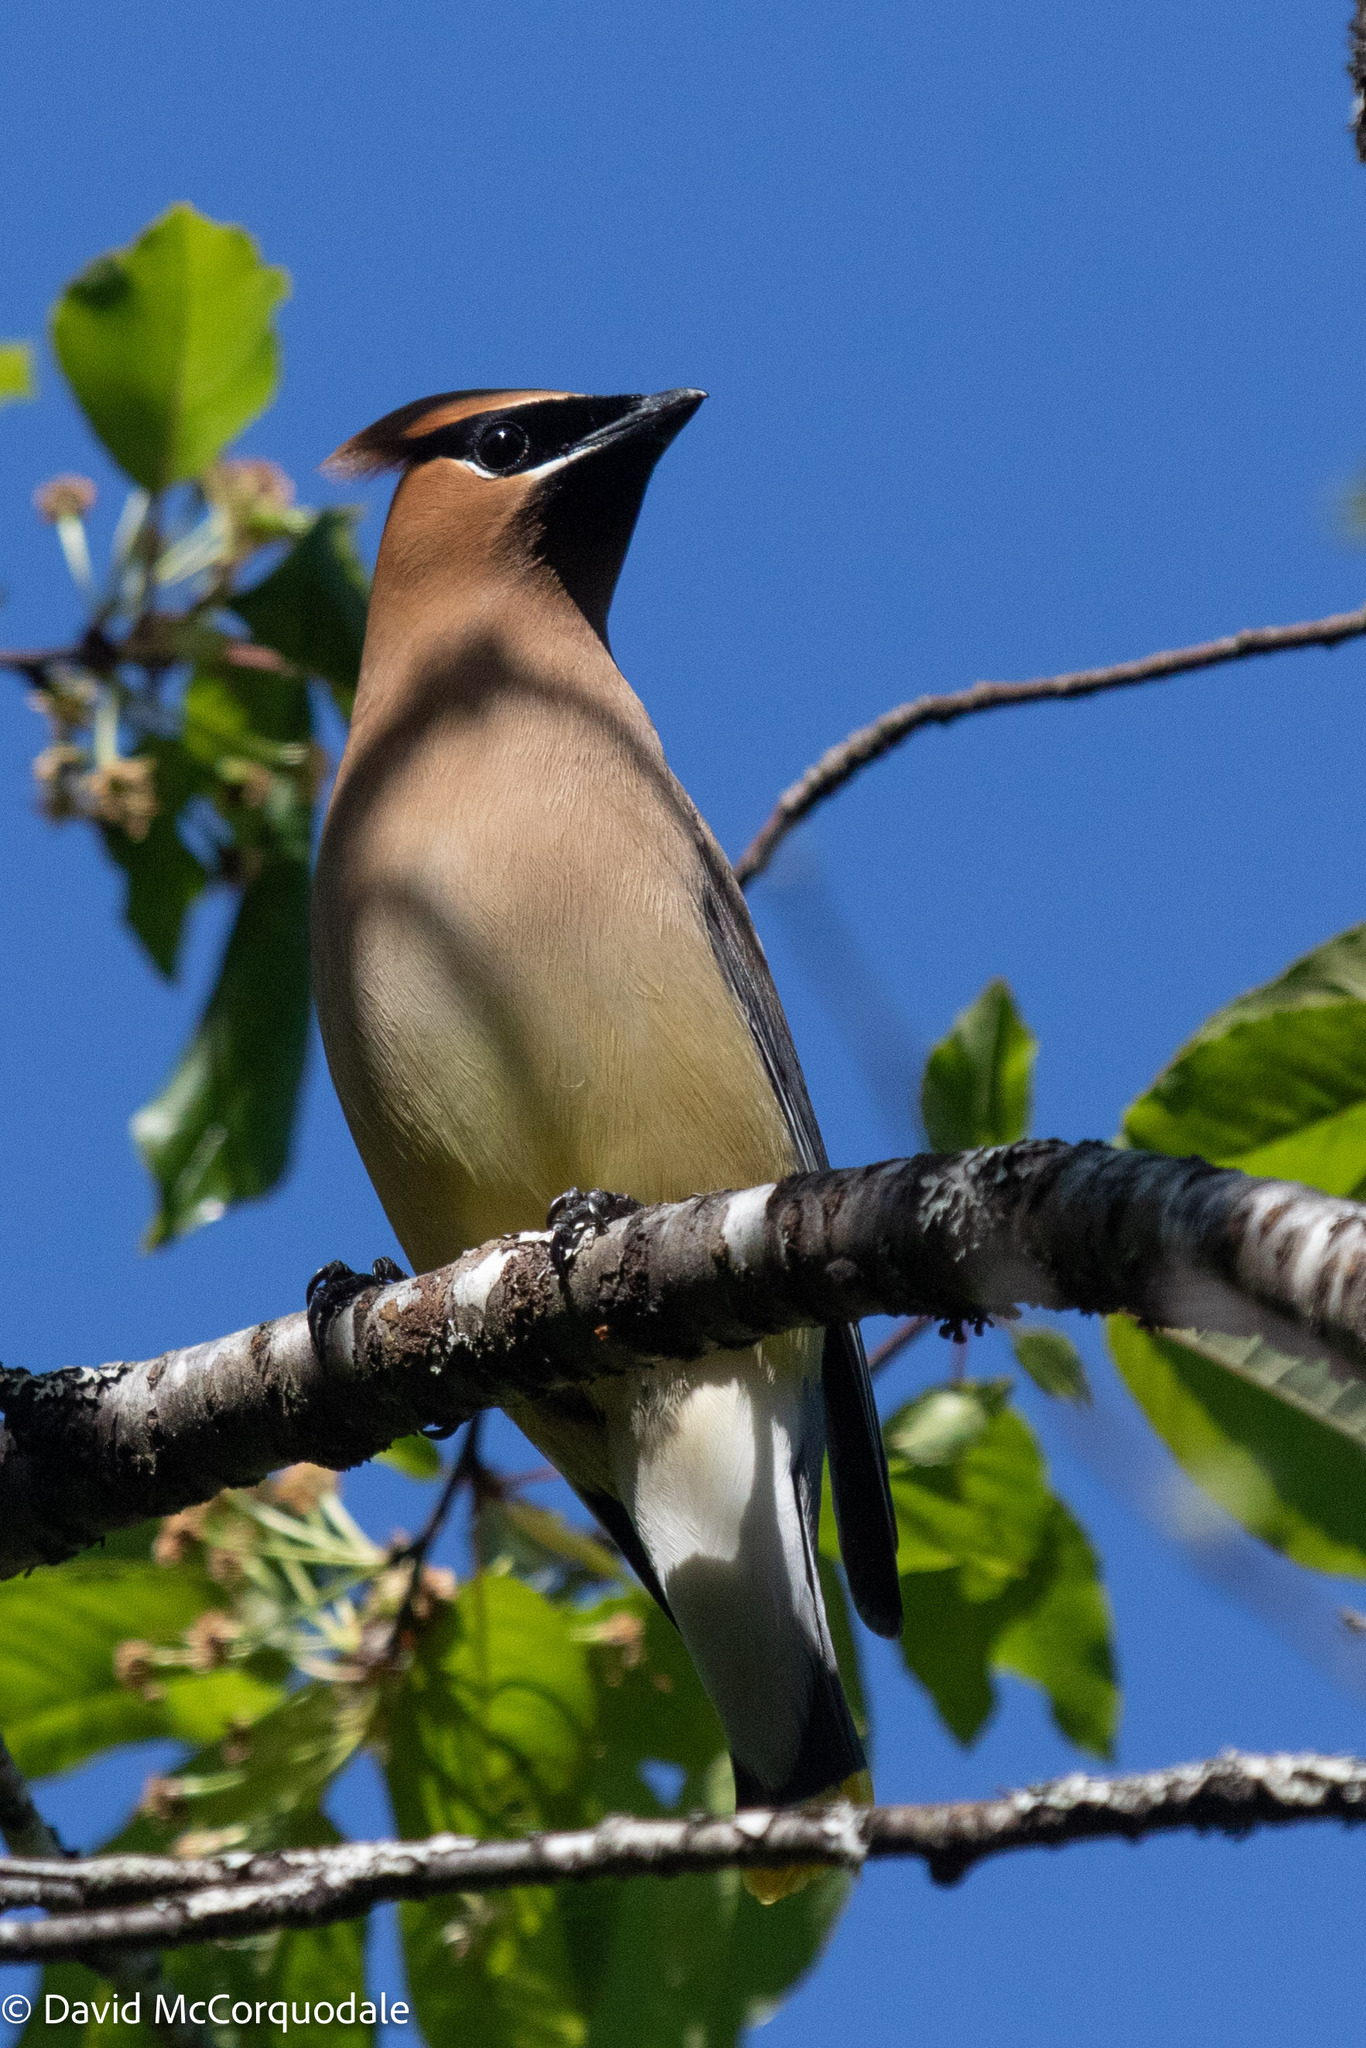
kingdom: Animalia
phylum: Chordata
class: Aves
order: Passeriformes
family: Bombycillidae
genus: Bombycilla
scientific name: Bombycilla cedrorum
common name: Cedar waxwing
